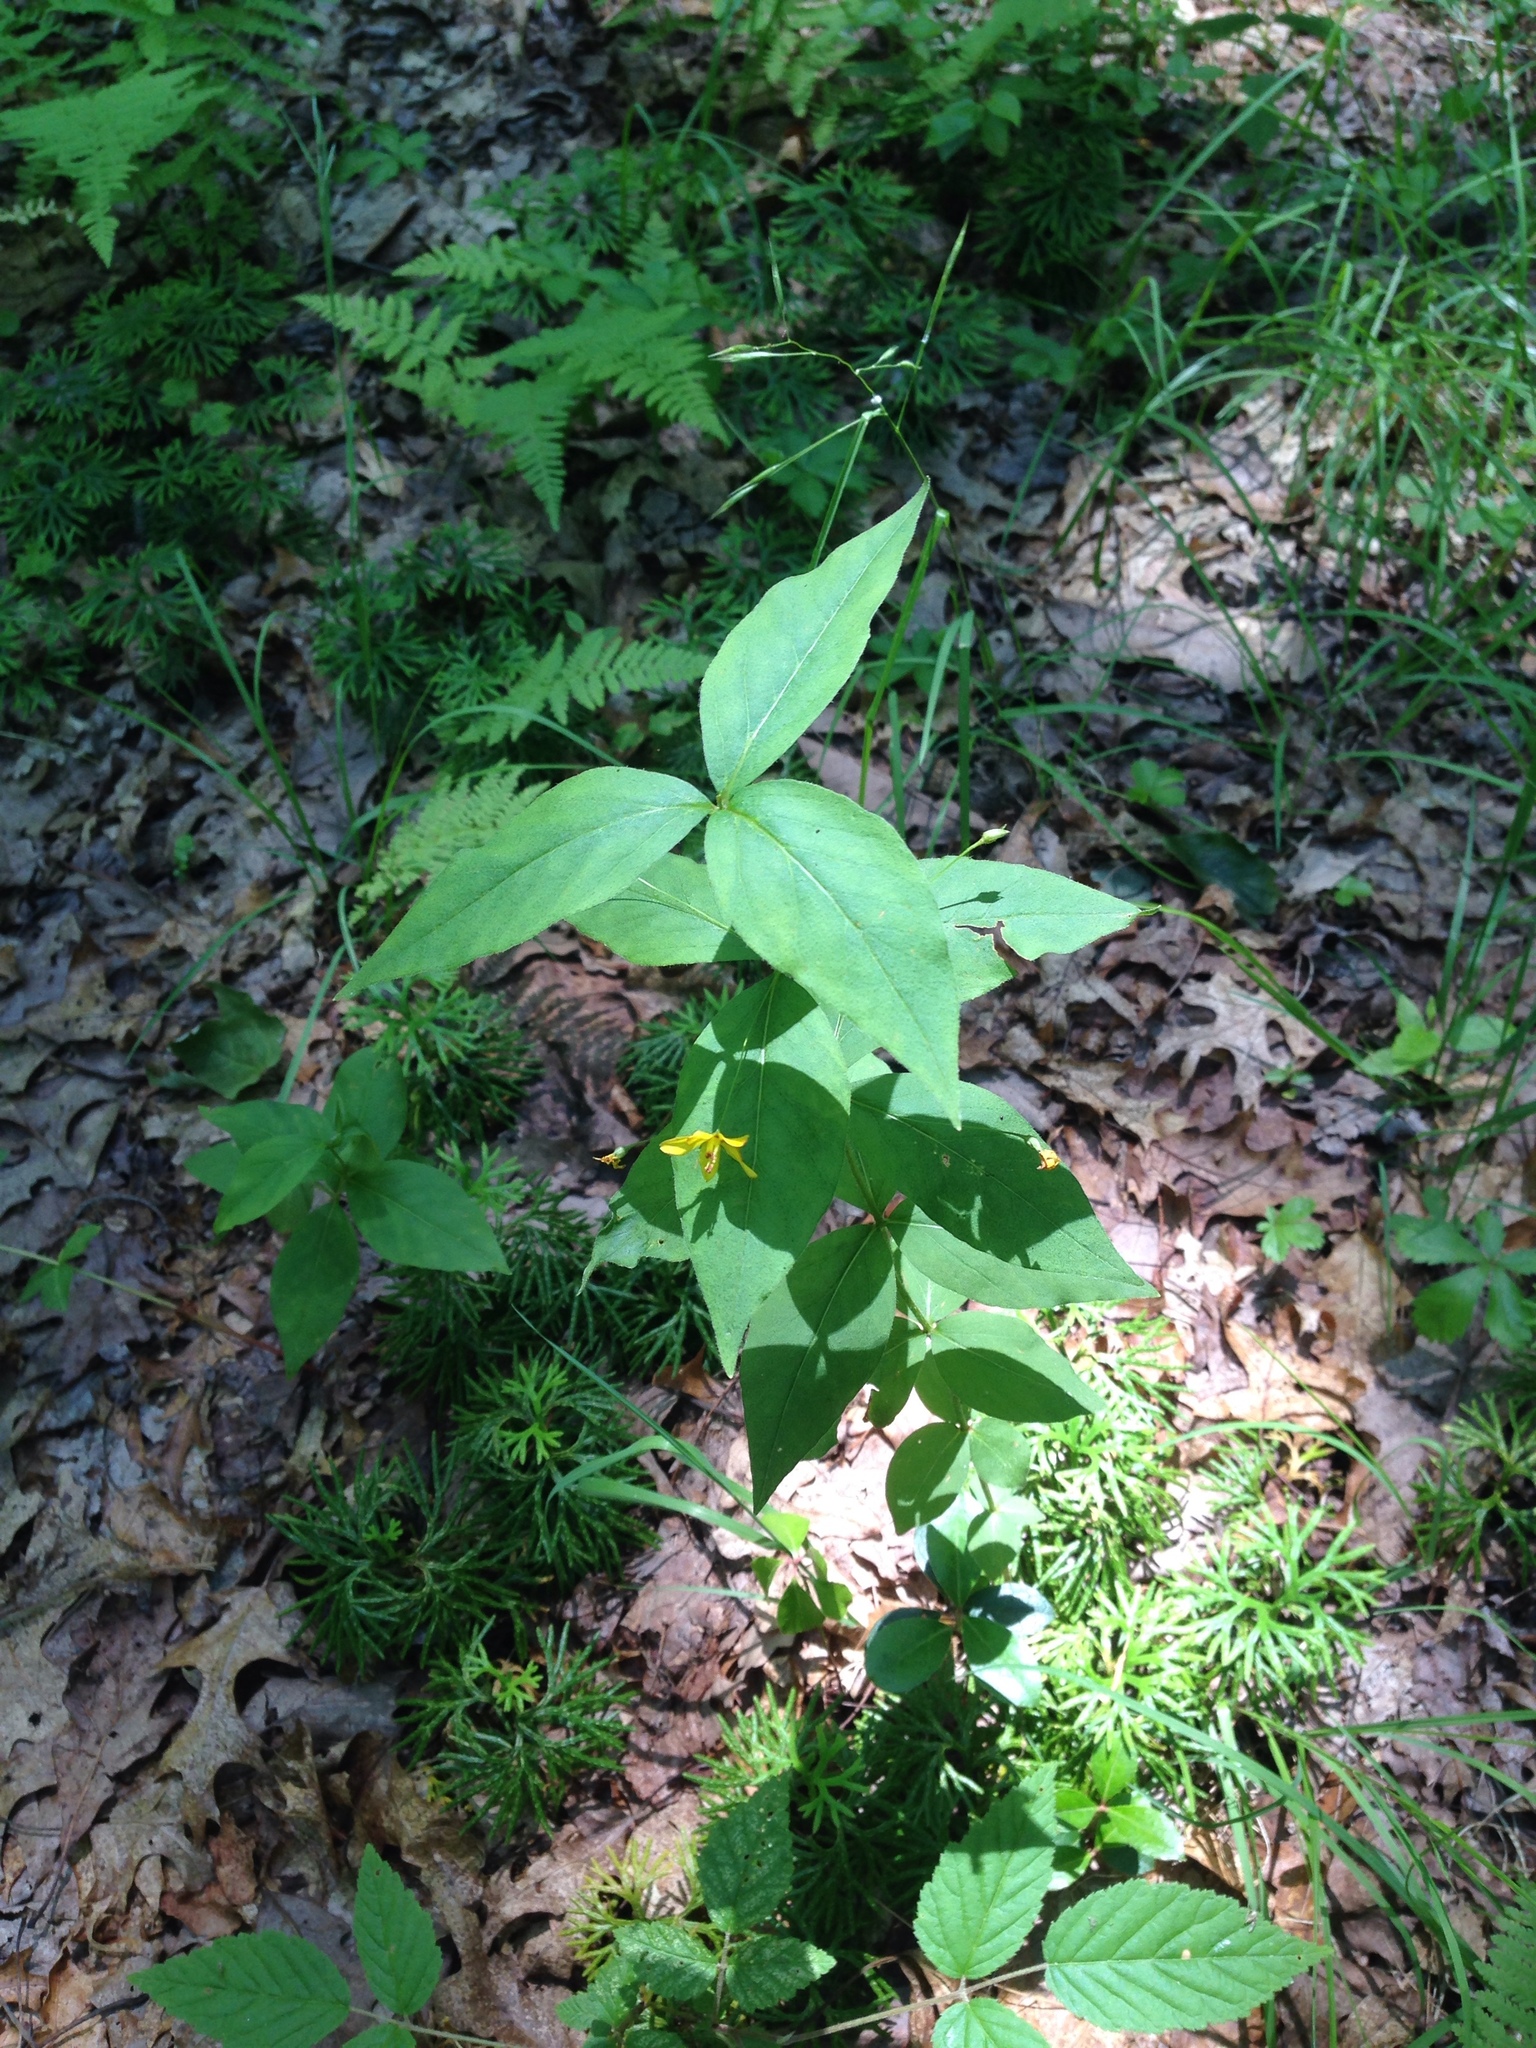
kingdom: Plantae
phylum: Tracheophyta
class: Magnoliopsida
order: Ericales
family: Primulaceae
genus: Lysimachia
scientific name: Lysimachia quadrifolia
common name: Whorled loosestrife
